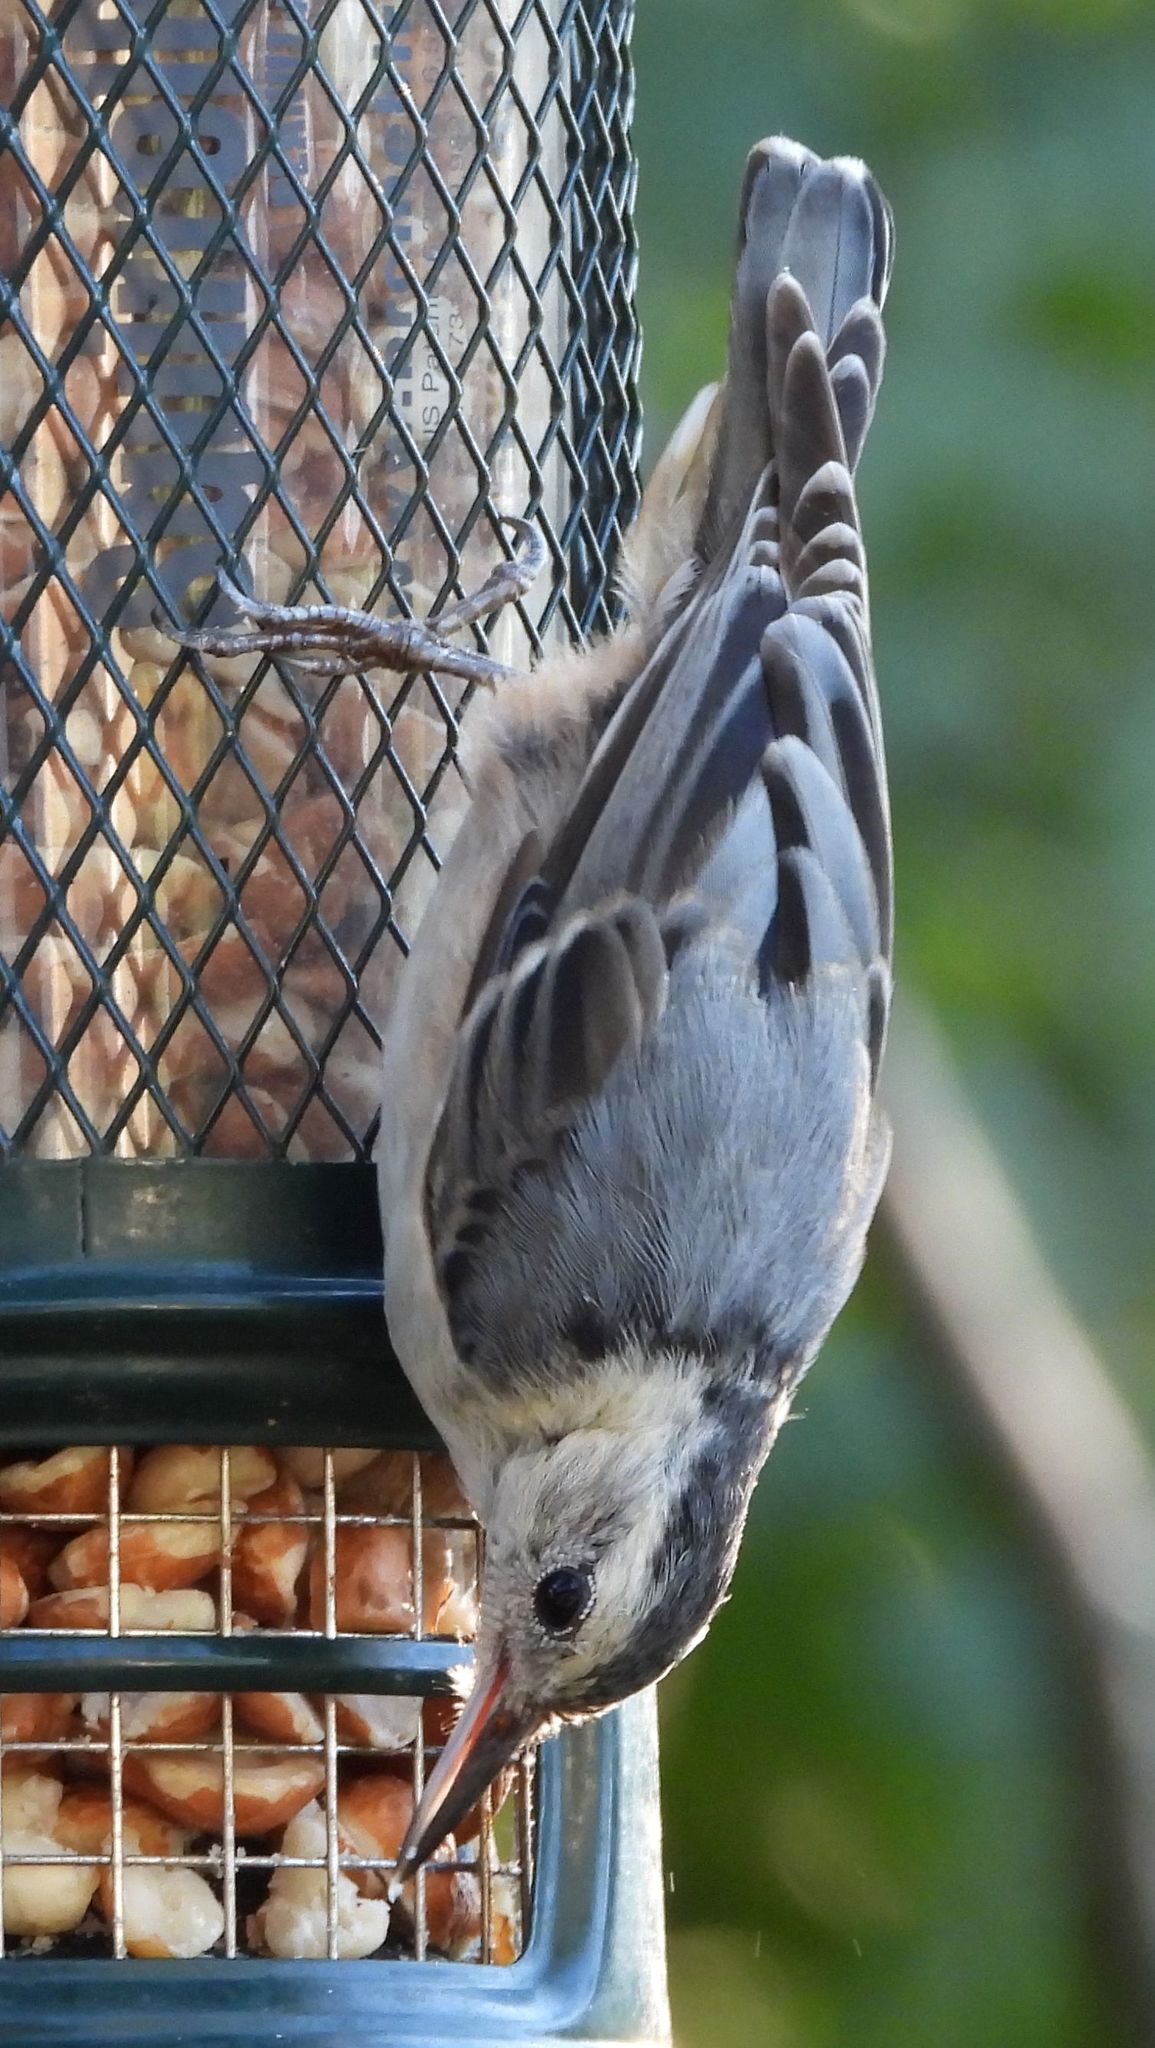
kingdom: Animalia
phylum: Chordata
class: Aves
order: Passeriformes
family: Sittidae
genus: Sitta
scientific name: Sitta carolinensis
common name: White-breasted nuthatch
